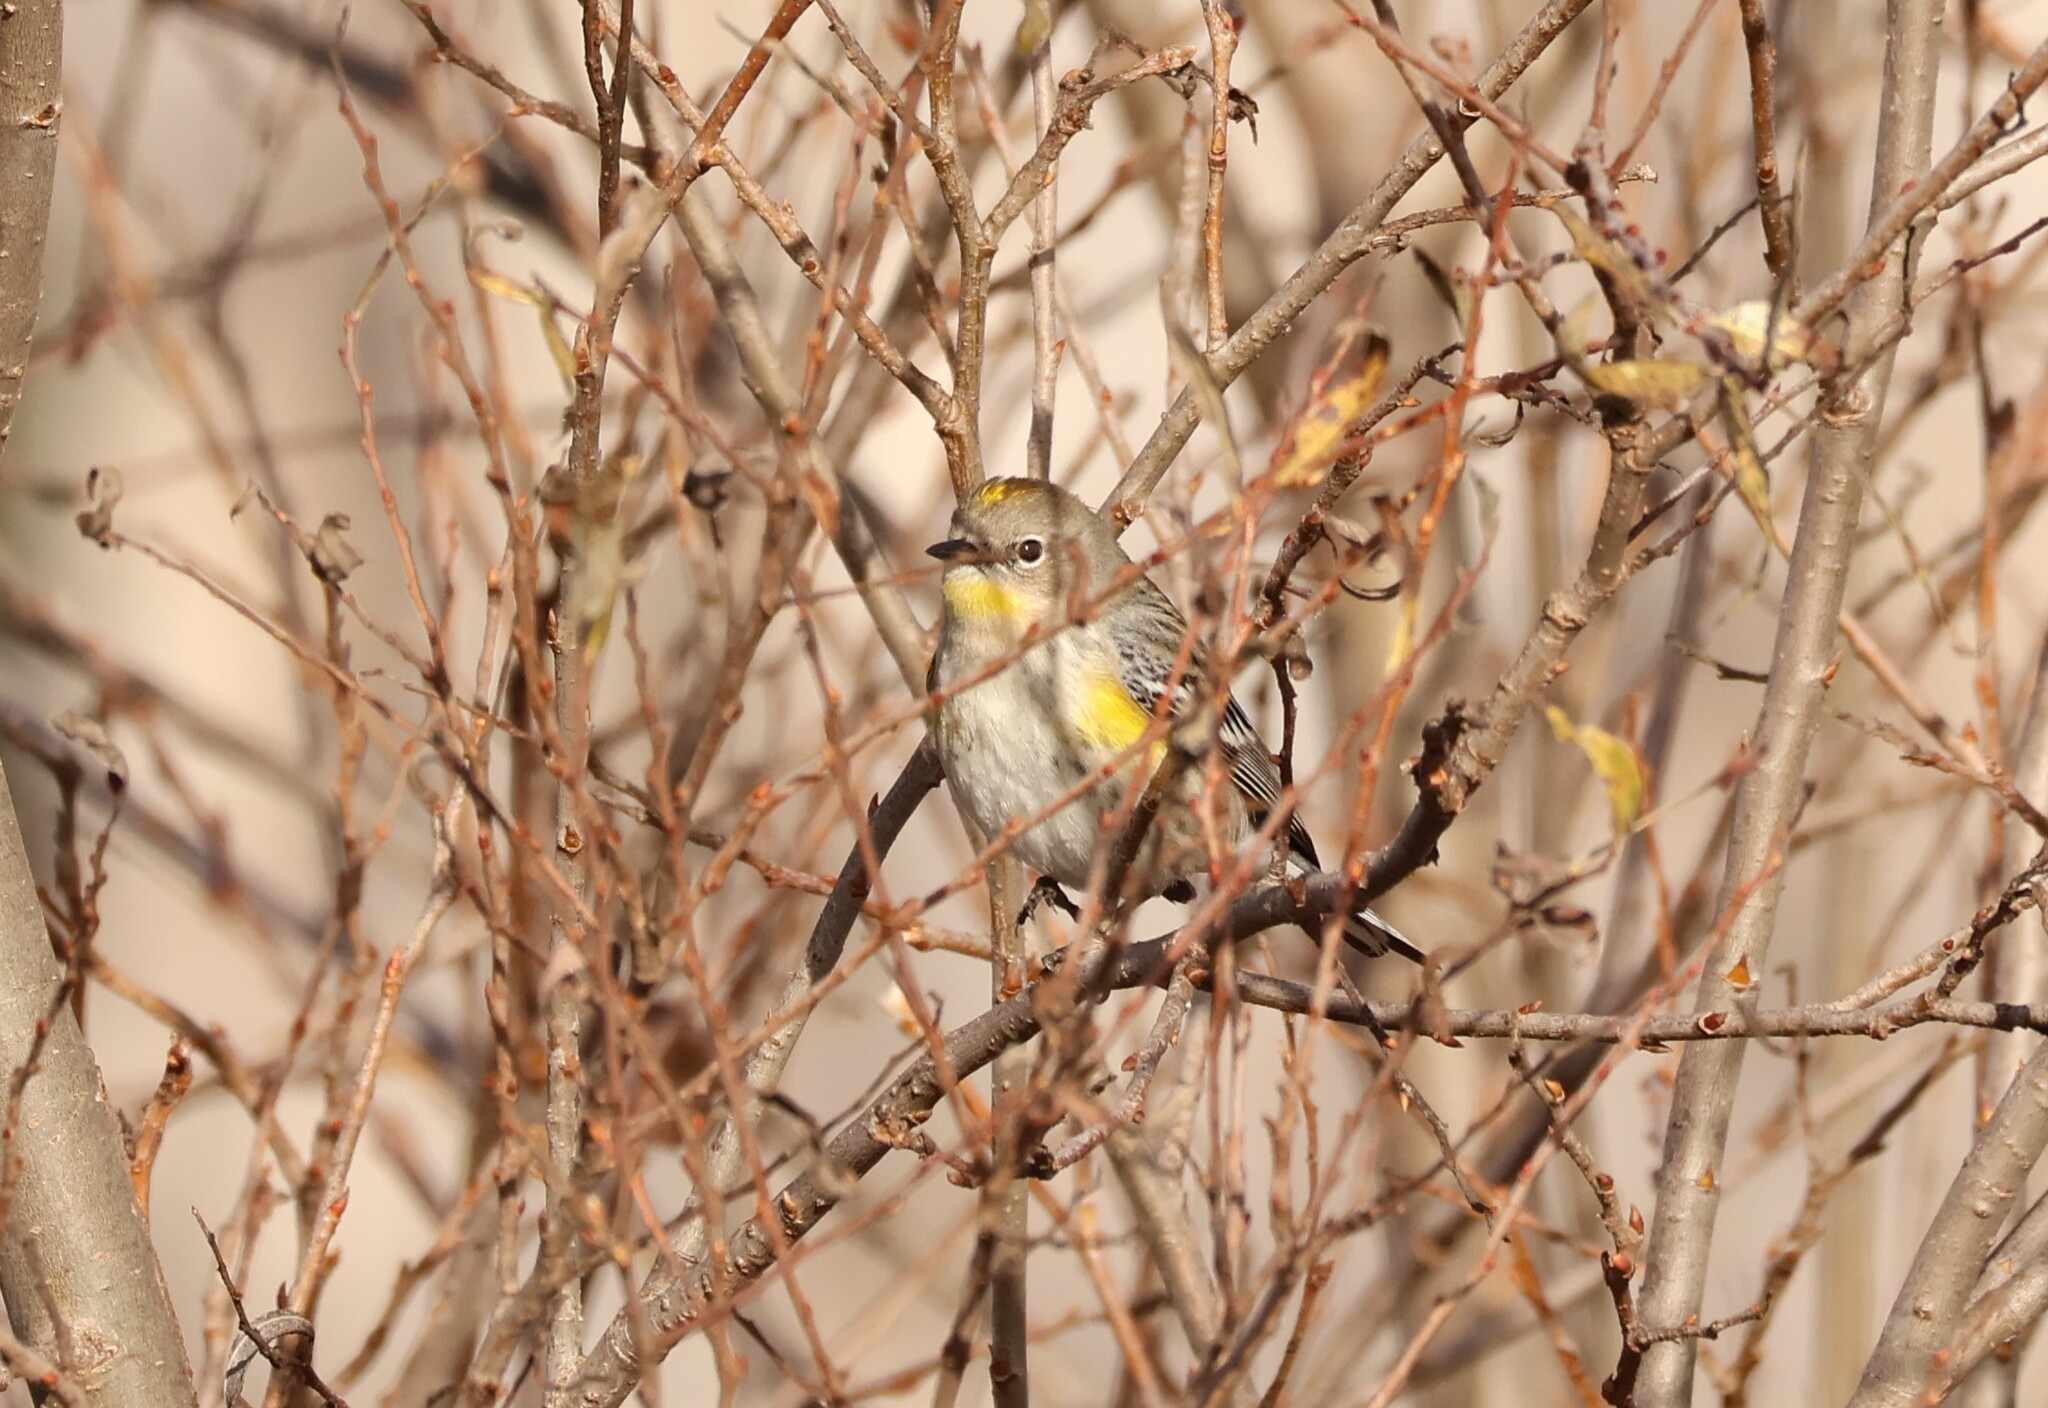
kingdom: Animalia
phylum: Chordata
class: Aves
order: Passeriformes
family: Parulidae
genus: Setophaga
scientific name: Setophaga auduboni
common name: Audubon's warbler
